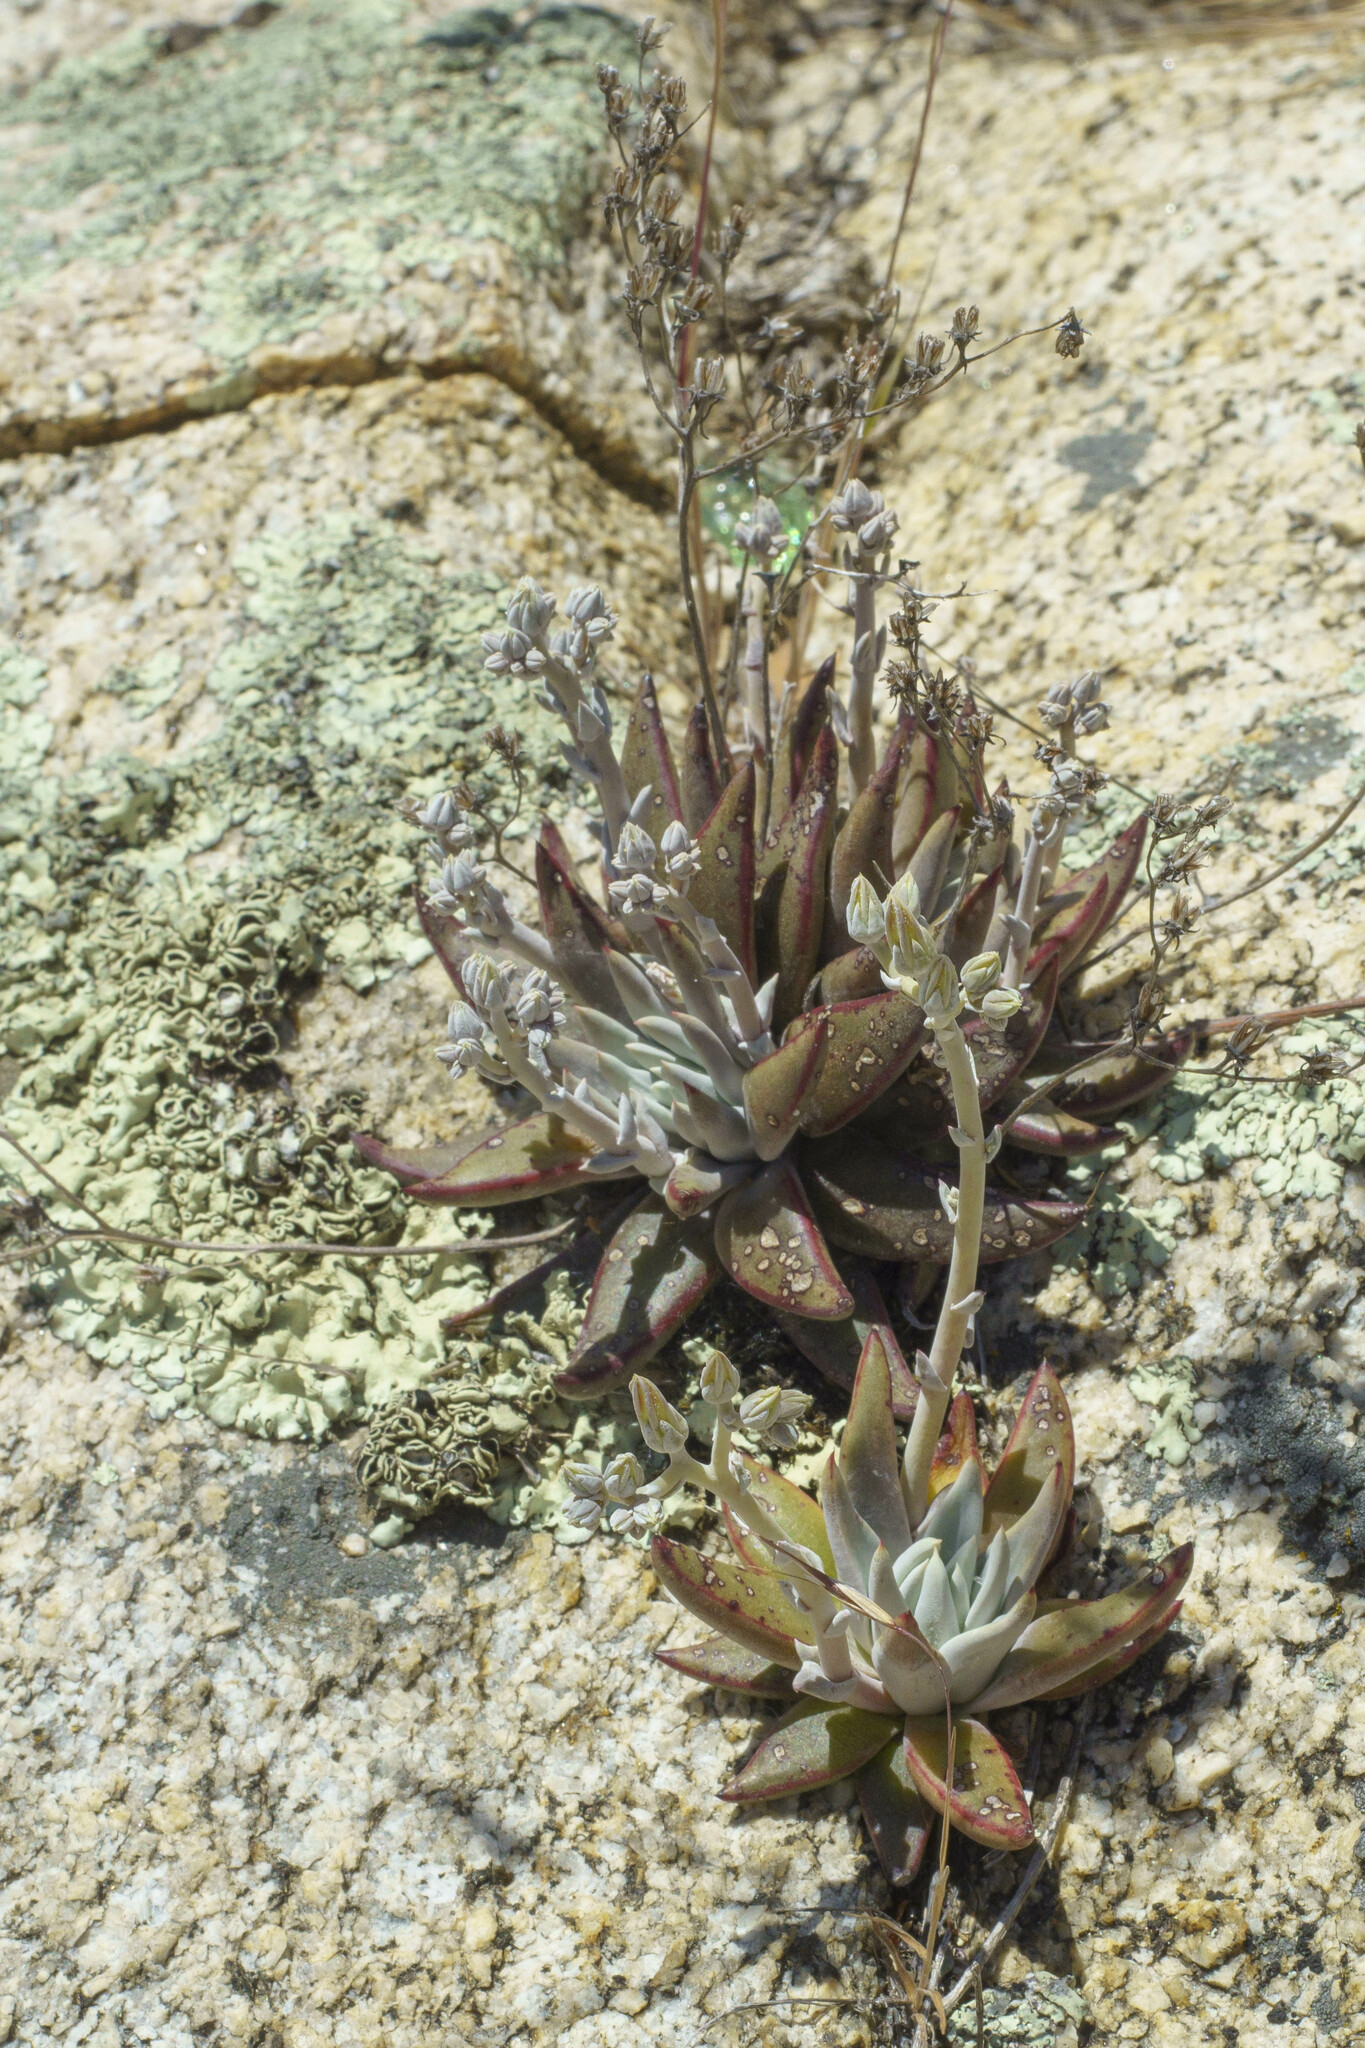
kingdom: Plantae
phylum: Tracheophyta
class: Magnoliopsida
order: Saxifragales
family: Crassulaceae
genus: Dudleya
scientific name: Dudleya abramsii
